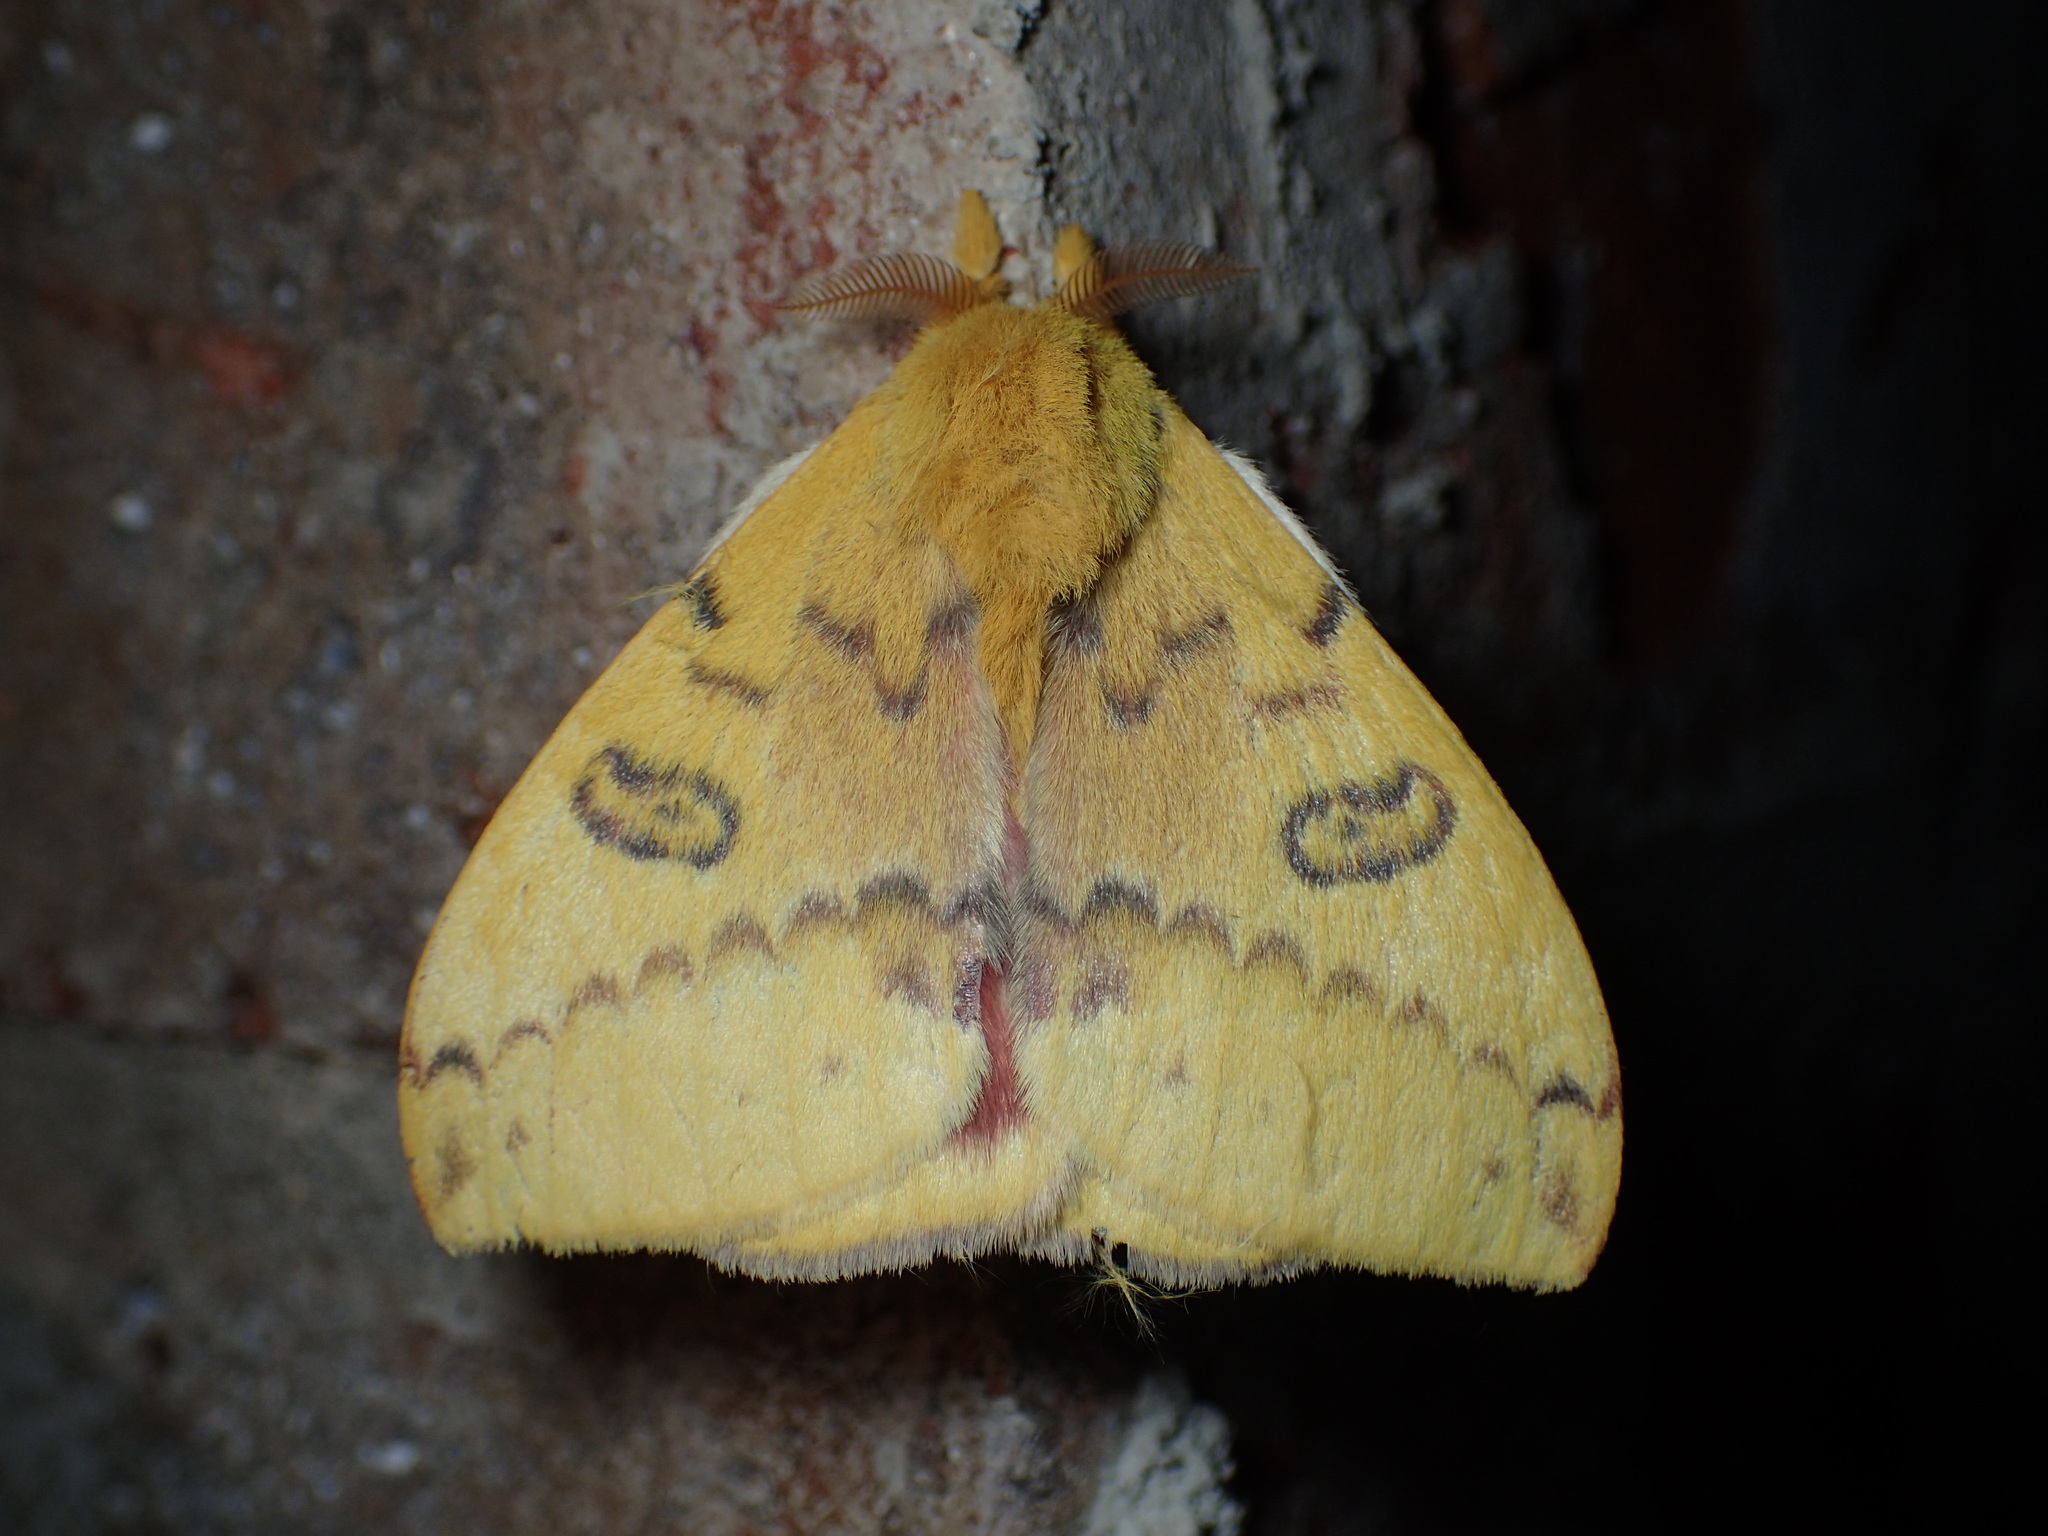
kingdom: Animalia
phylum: Arthropoda
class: Insecta
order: Lepidoptera
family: Saturniidae
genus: Automeris
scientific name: Automeris io
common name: Io moth
